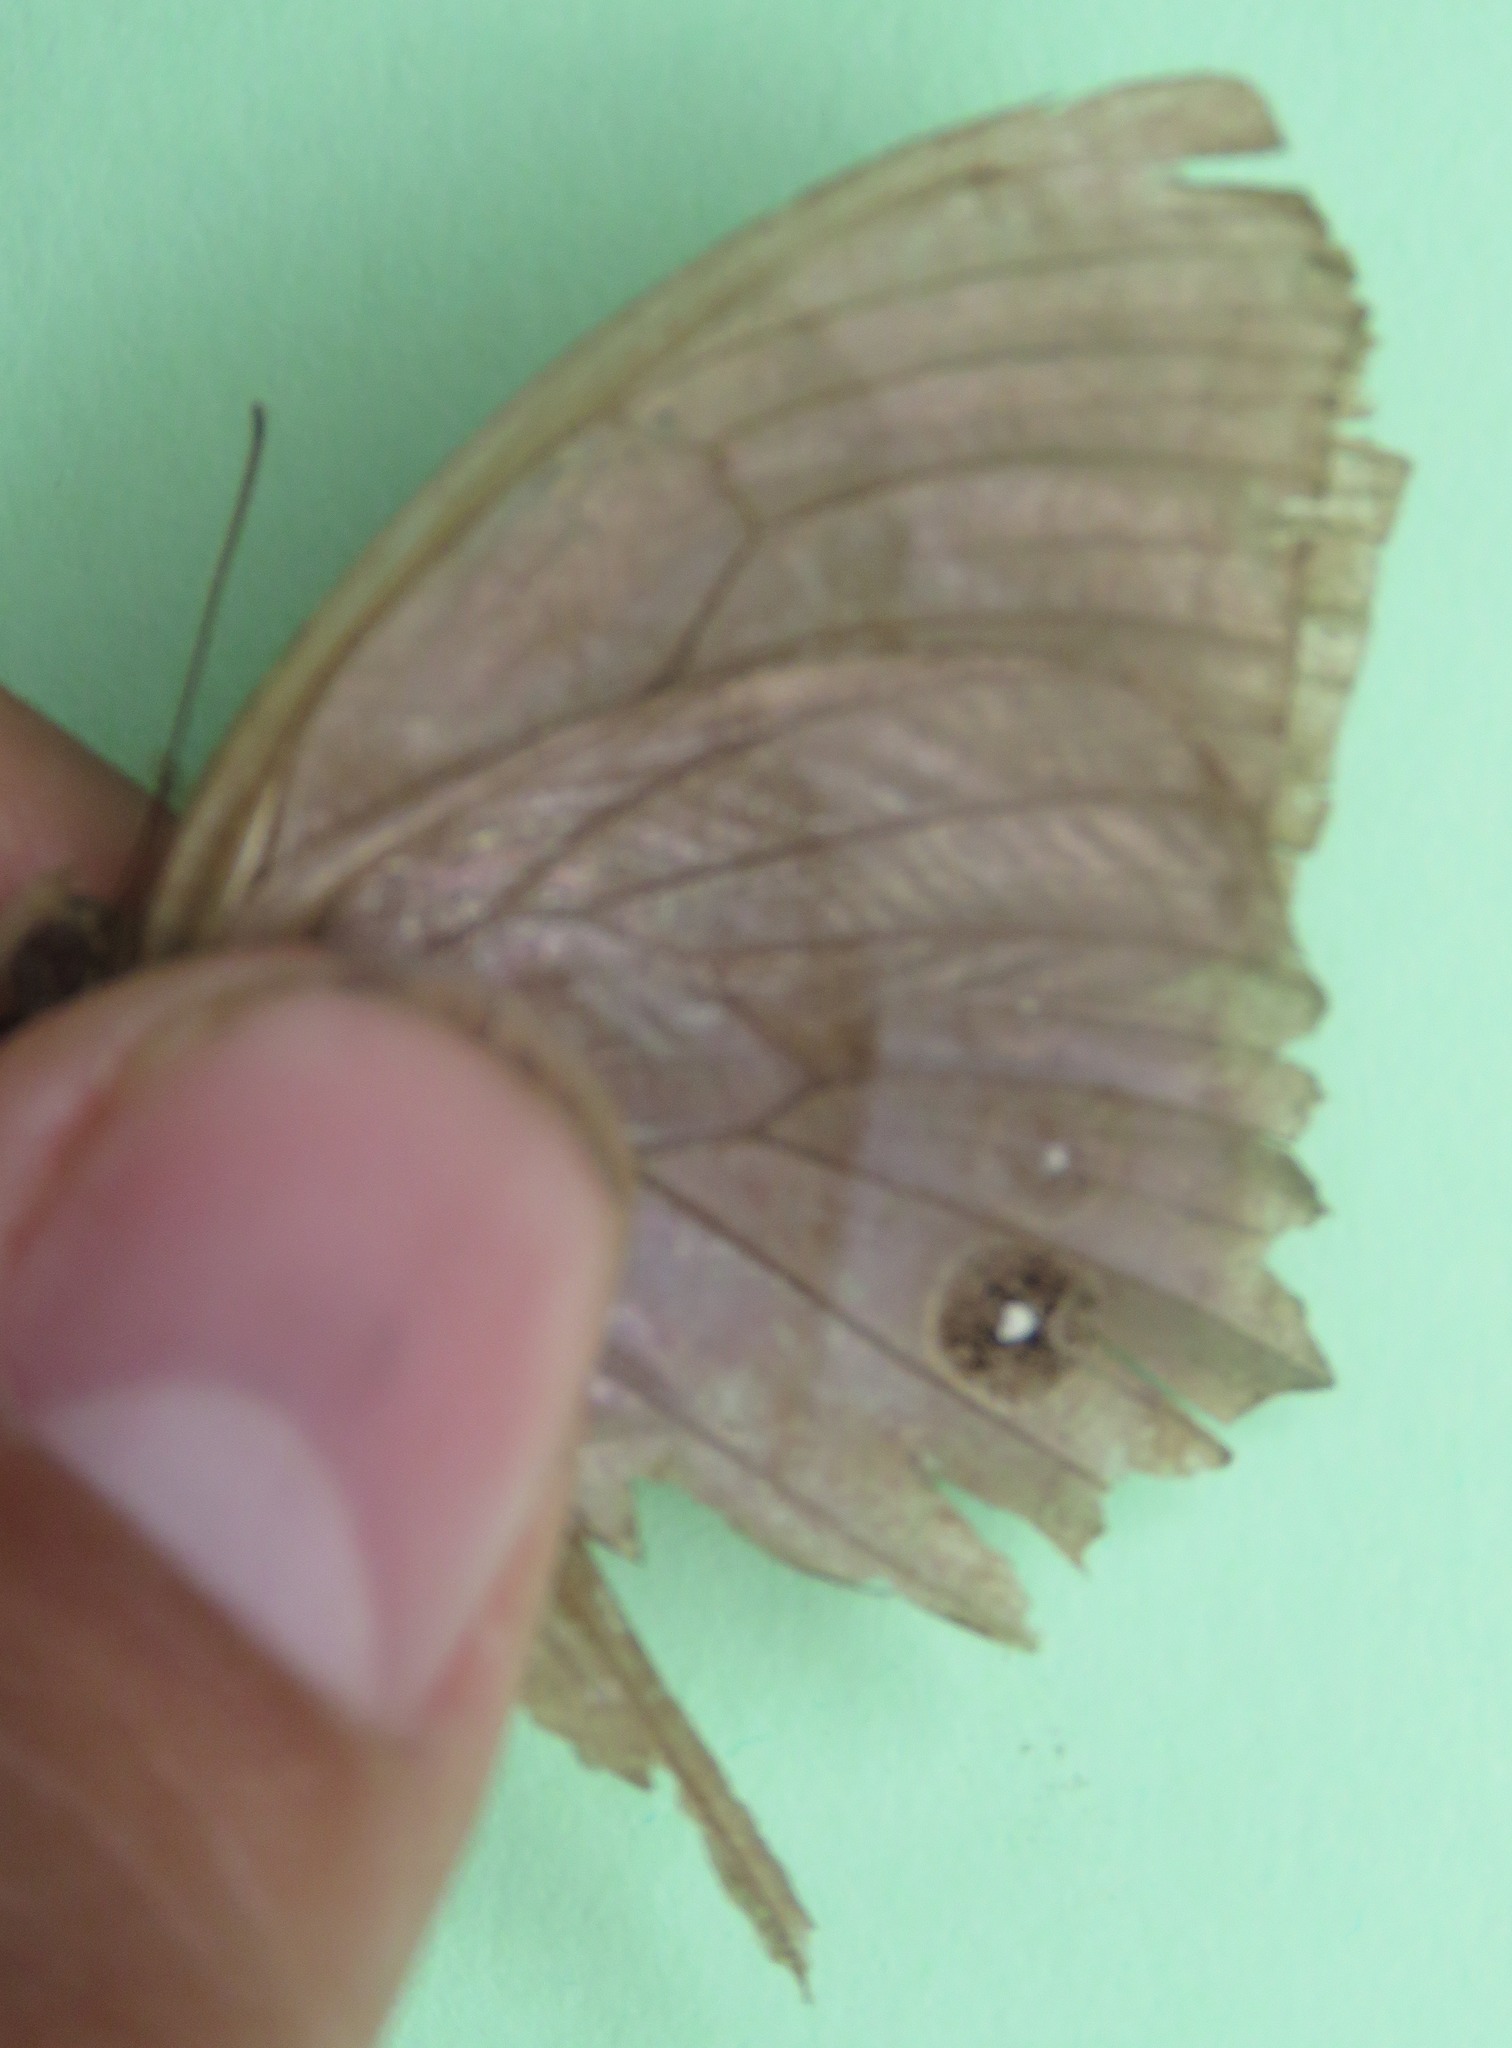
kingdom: Animalia
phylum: Arthropoda
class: Insecta
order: Lepidoptera
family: Nymphalidae
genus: Taygetis
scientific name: Taygetis inconspicua
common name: Inconspicuous satyr
